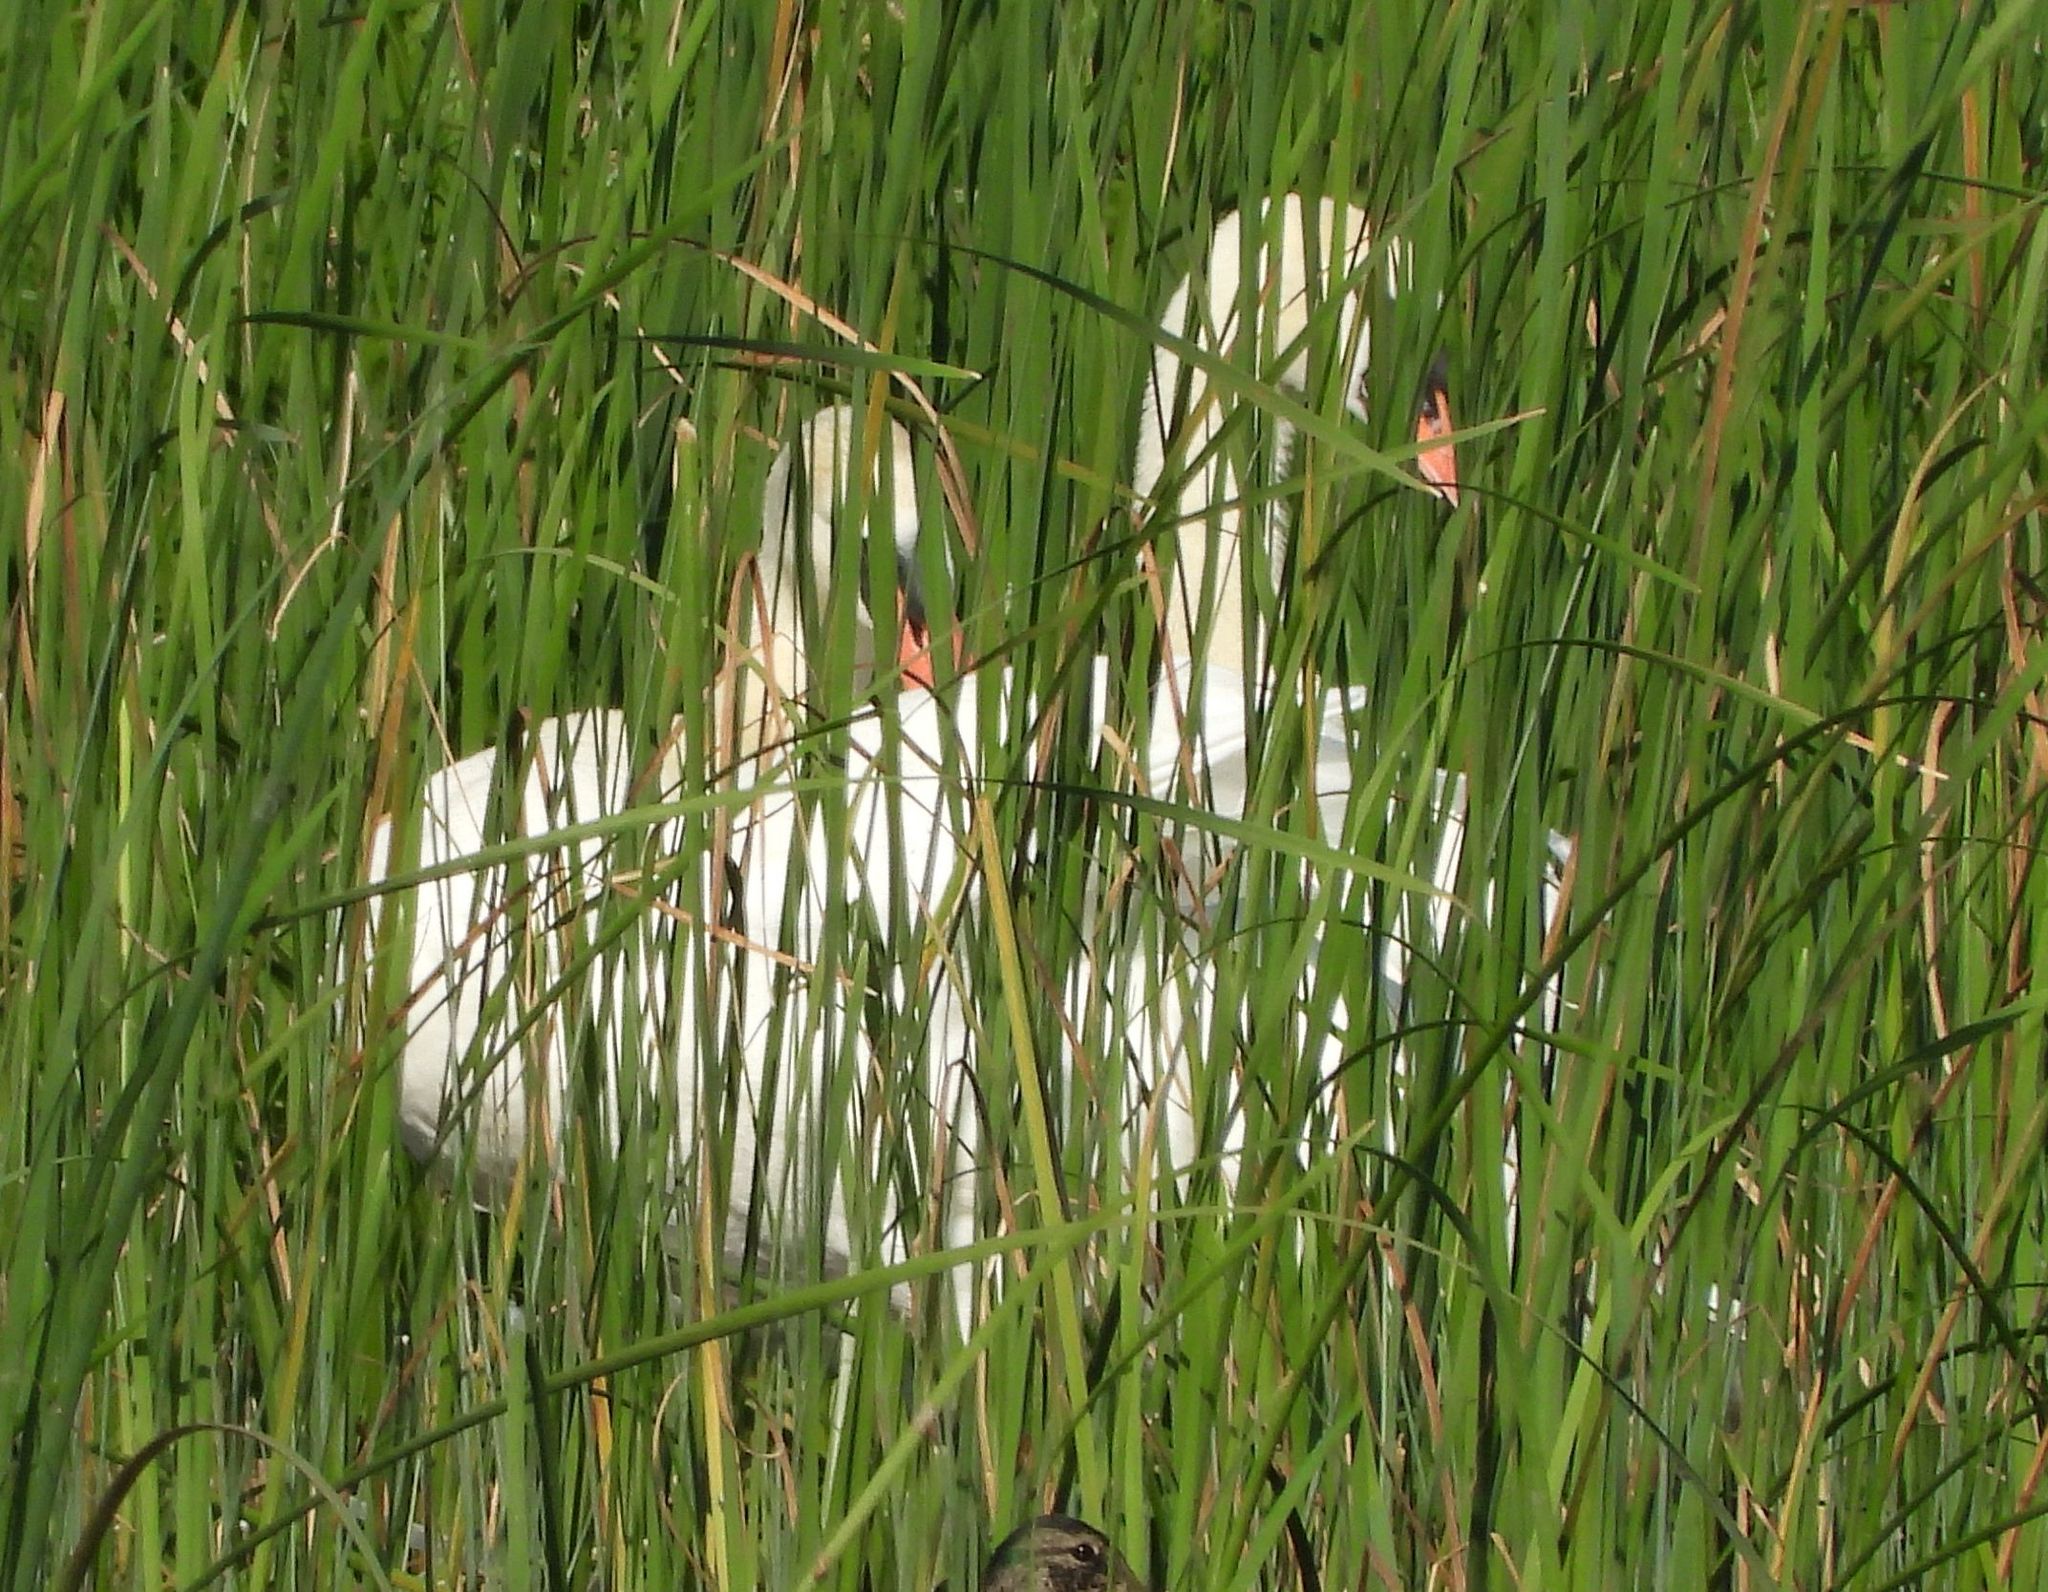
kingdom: Animalia
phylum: Chordata
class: Aves
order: Anseriformes
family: Anatidae
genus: Cygnus
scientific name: Cygnus olor
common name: Mute swan
